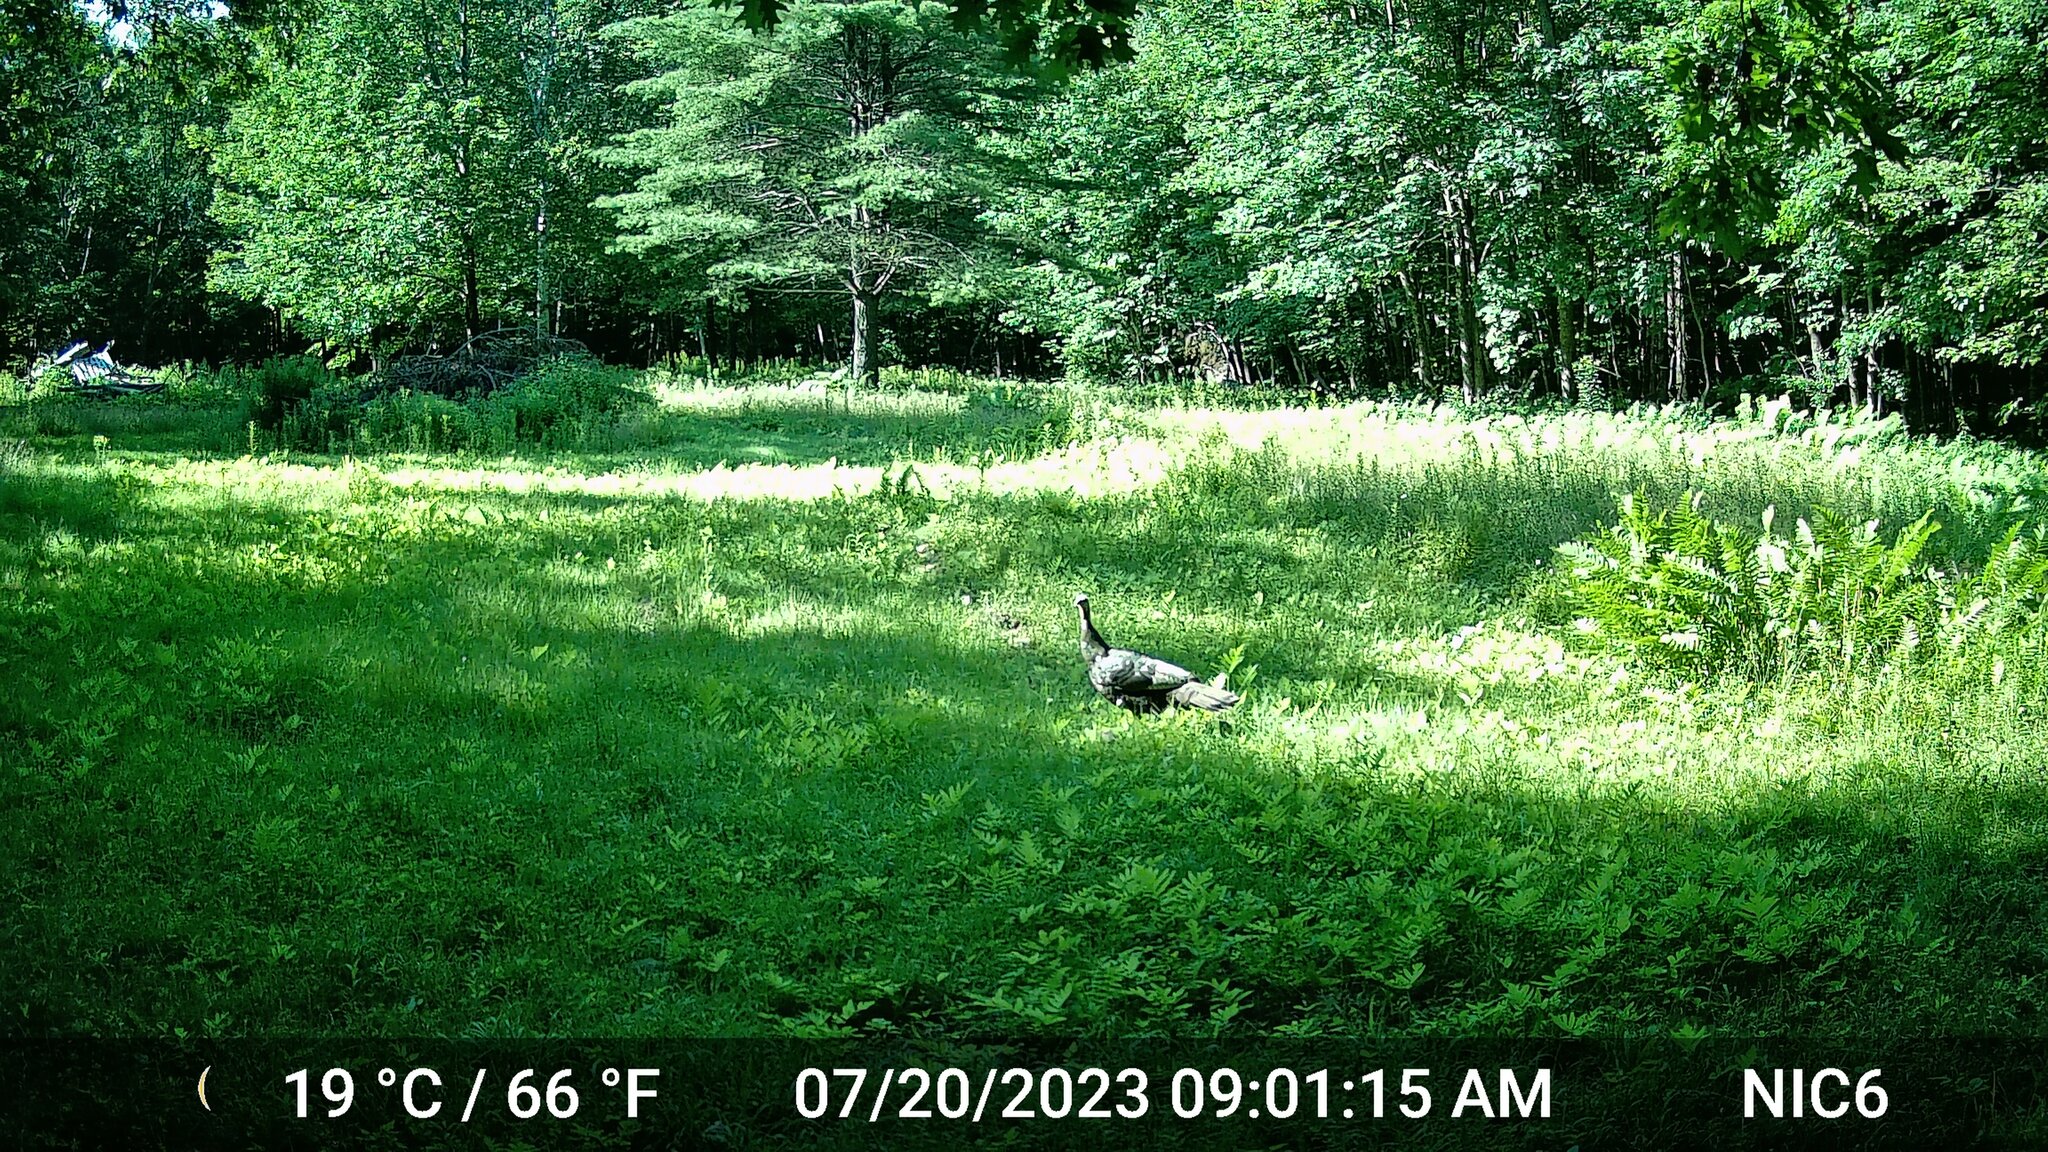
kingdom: Animalia
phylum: Chordata
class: Aves
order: Galliformes
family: Phasianidae
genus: Meleagris
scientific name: Meleagris gallopavo
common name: Wild turkey
